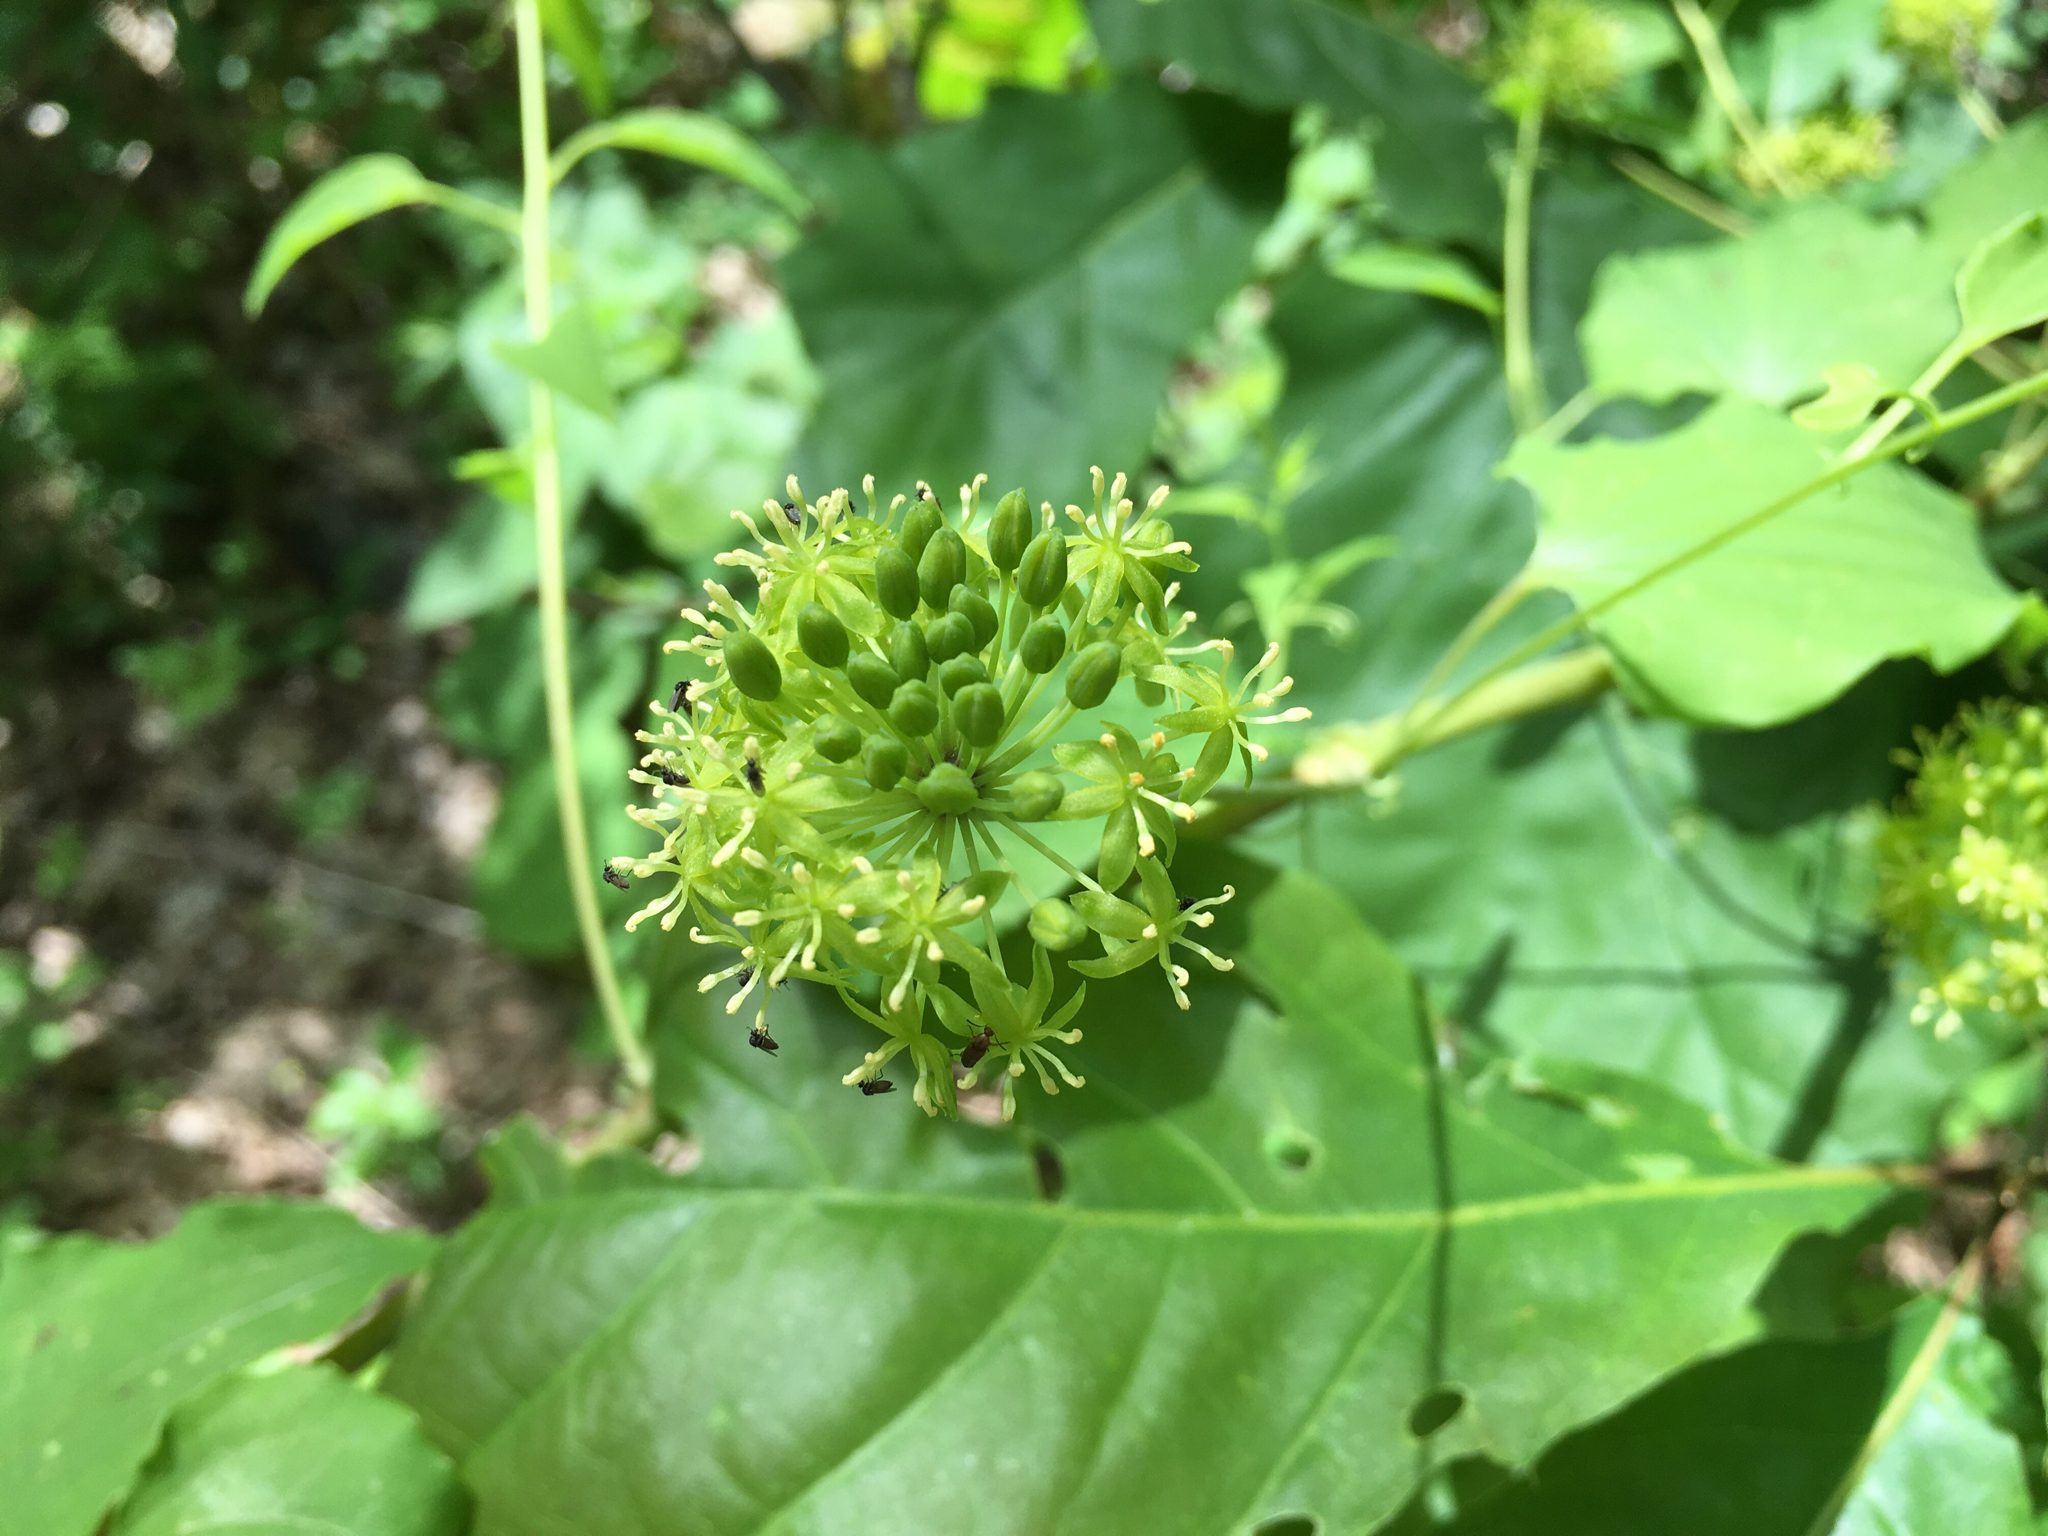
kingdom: Plantae
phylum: Tracheophyta
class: Liliopsida
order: Liliales
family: Smilacaceae
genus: Smilax
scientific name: Smilax herbacea
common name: Jacob's-ladder
